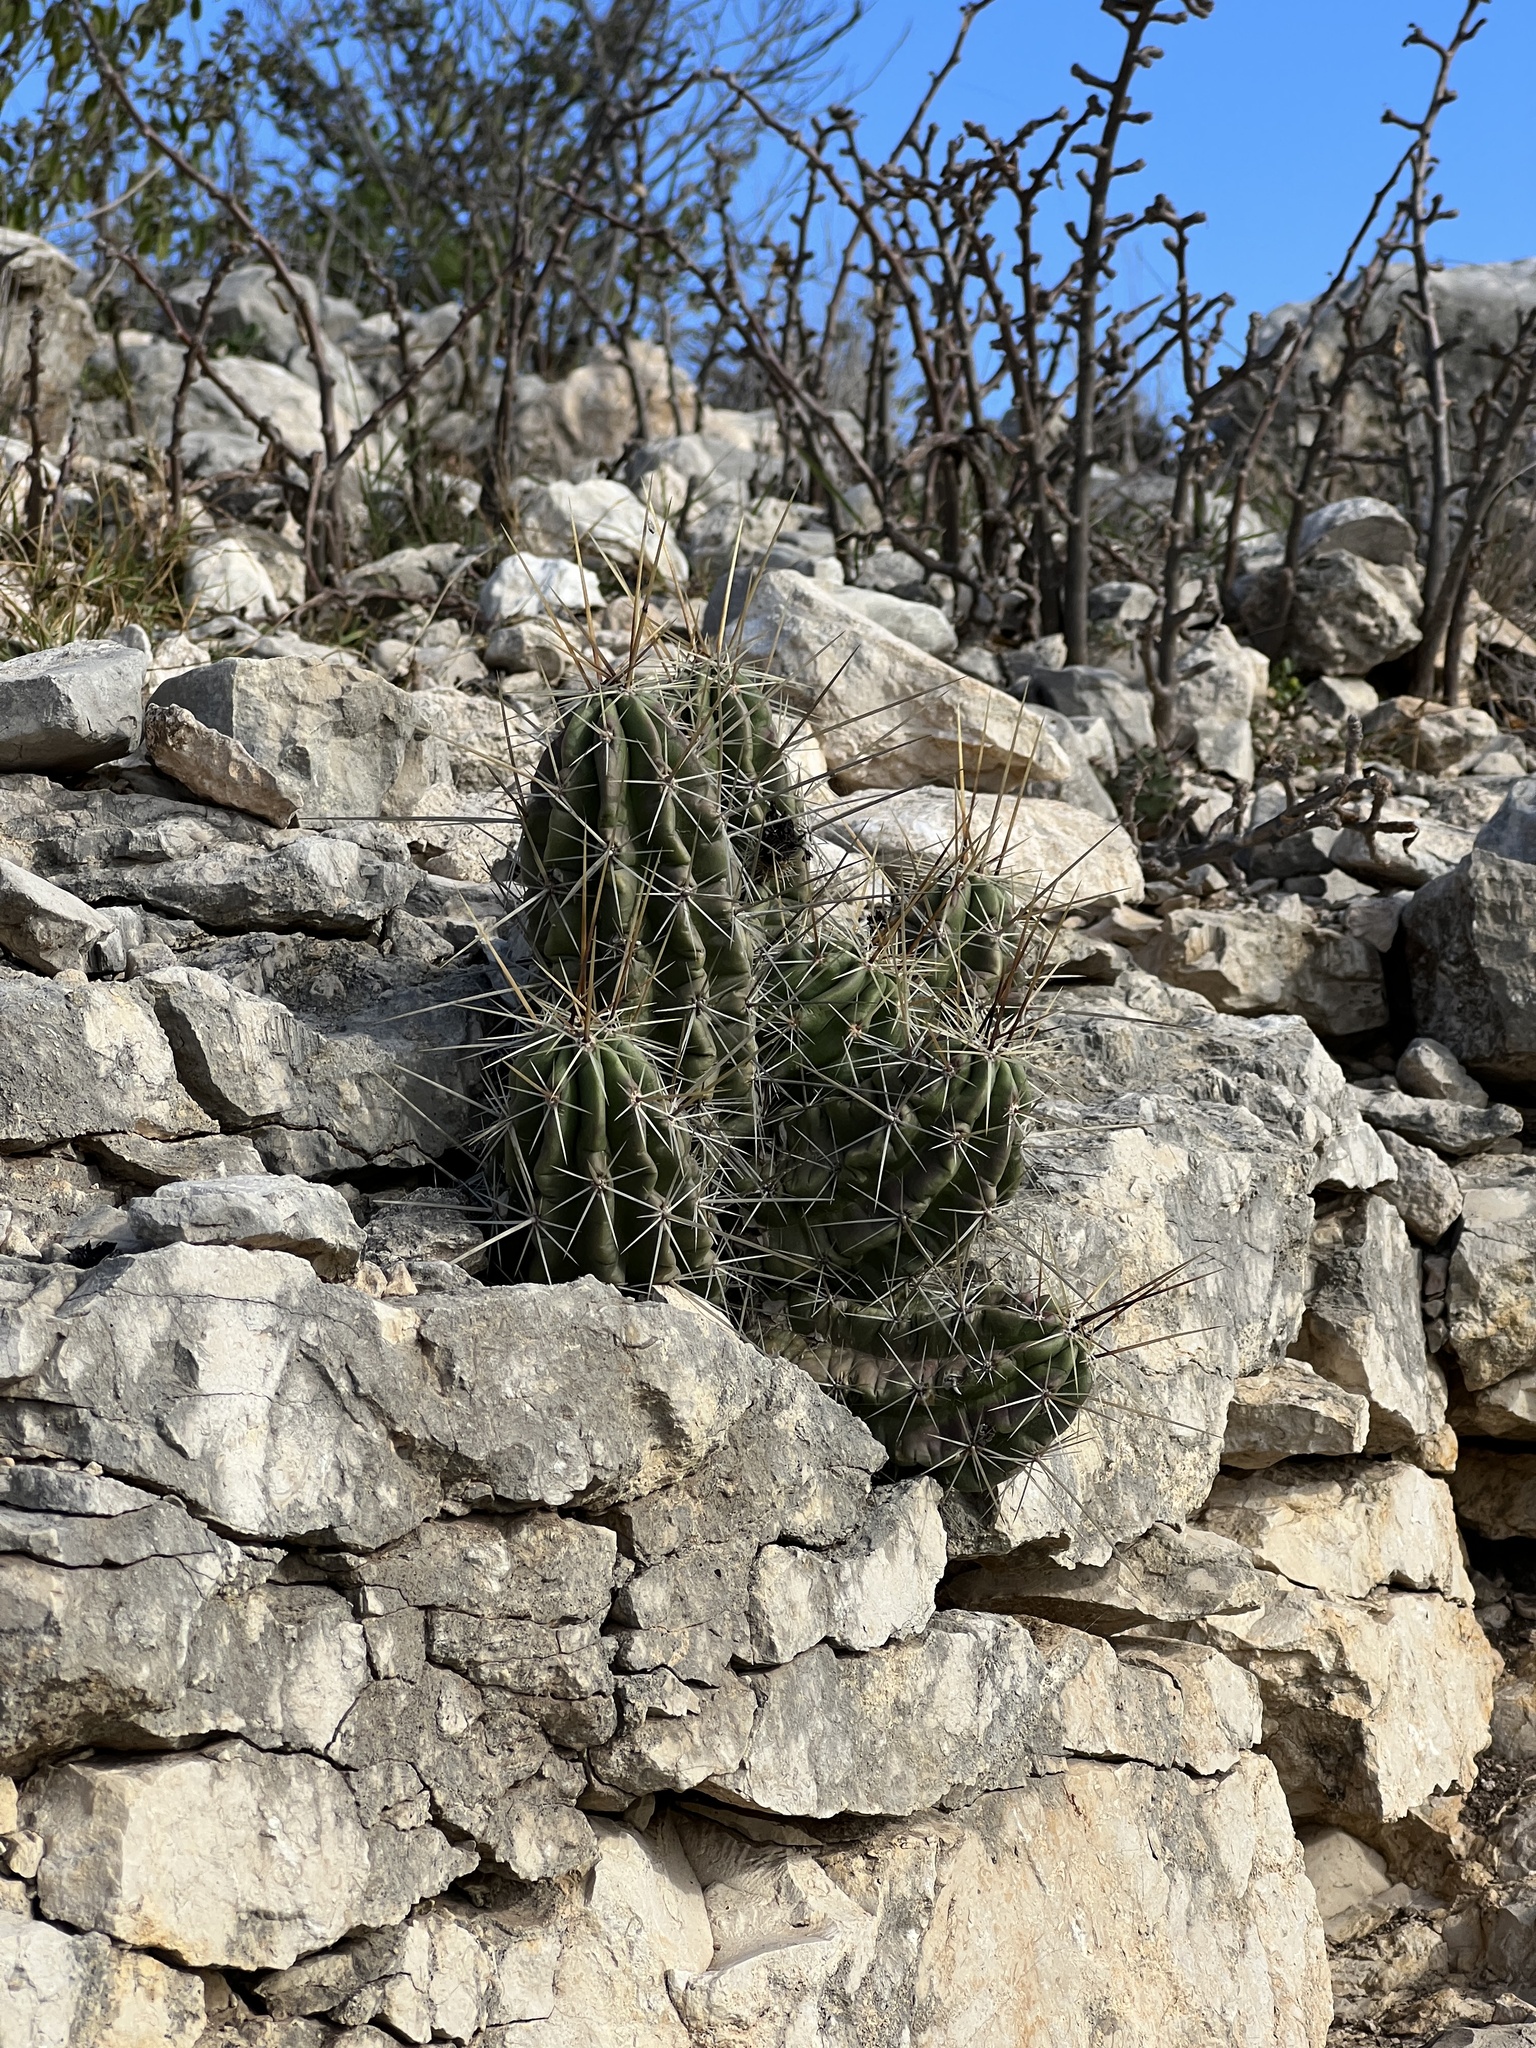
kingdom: Plantae
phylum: Tracheophyta
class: Magnoliopsida
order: Caryophyllales
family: Cactaceae
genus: Echinocereus
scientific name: Echinocereus enneacanthus
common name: Pitaya
